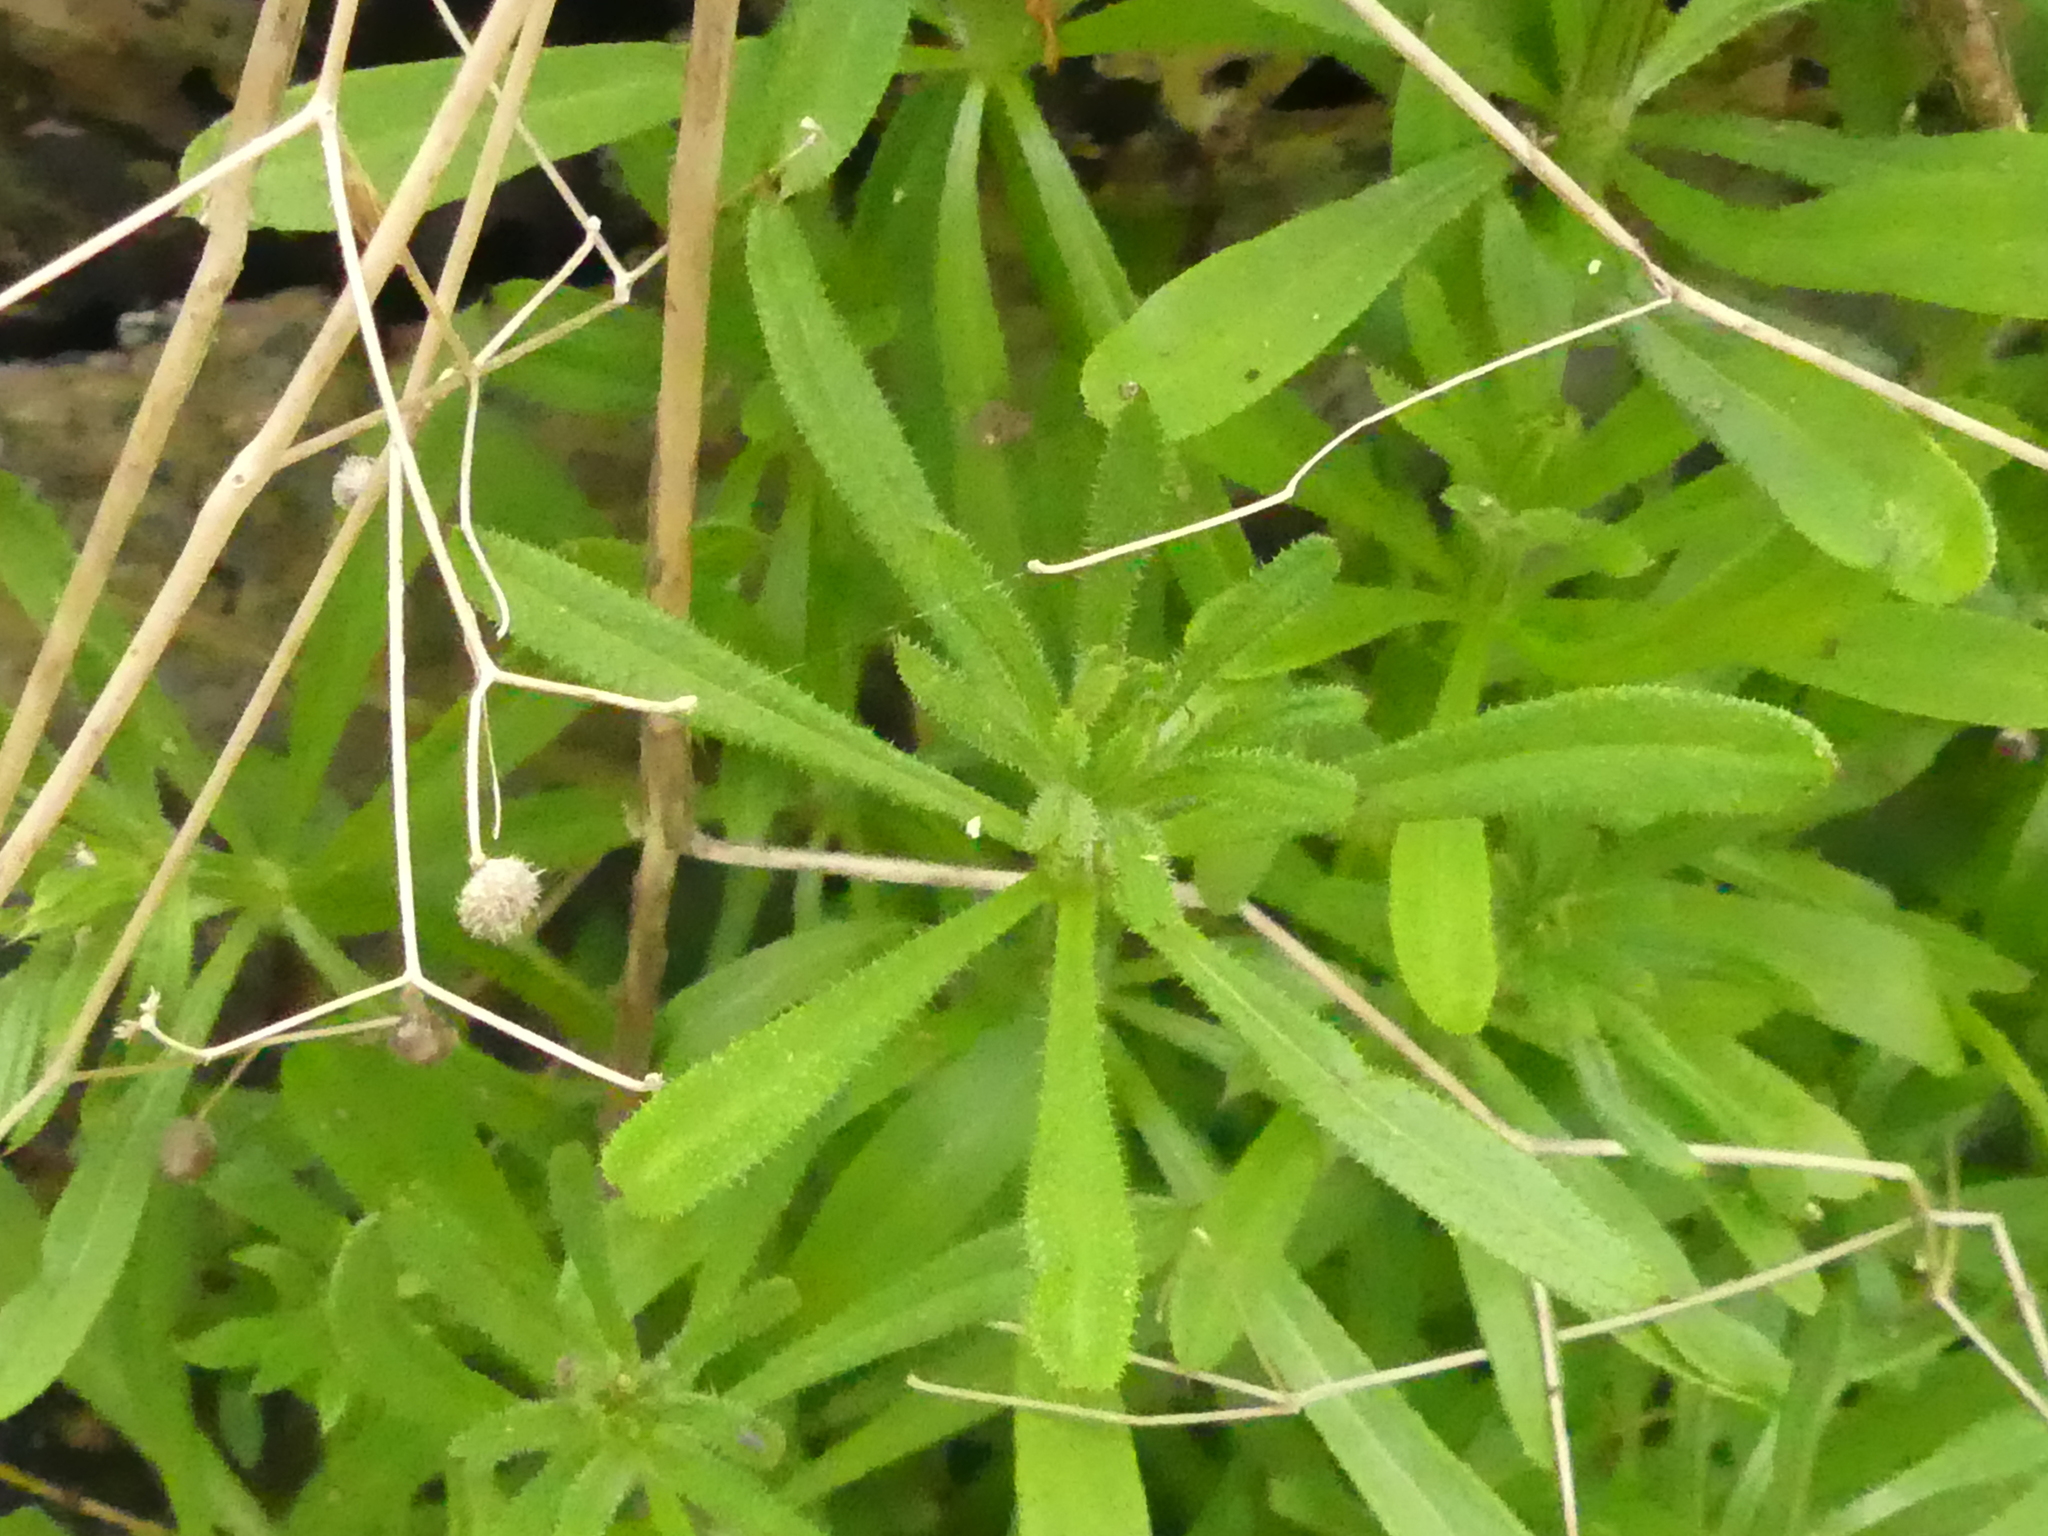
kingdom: Plantae
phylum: Tracheophyta
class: Magnoliopsida
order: Gentianales
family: Rubiaceae
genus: Galium
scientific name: Galium aparine
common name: Cleavers
